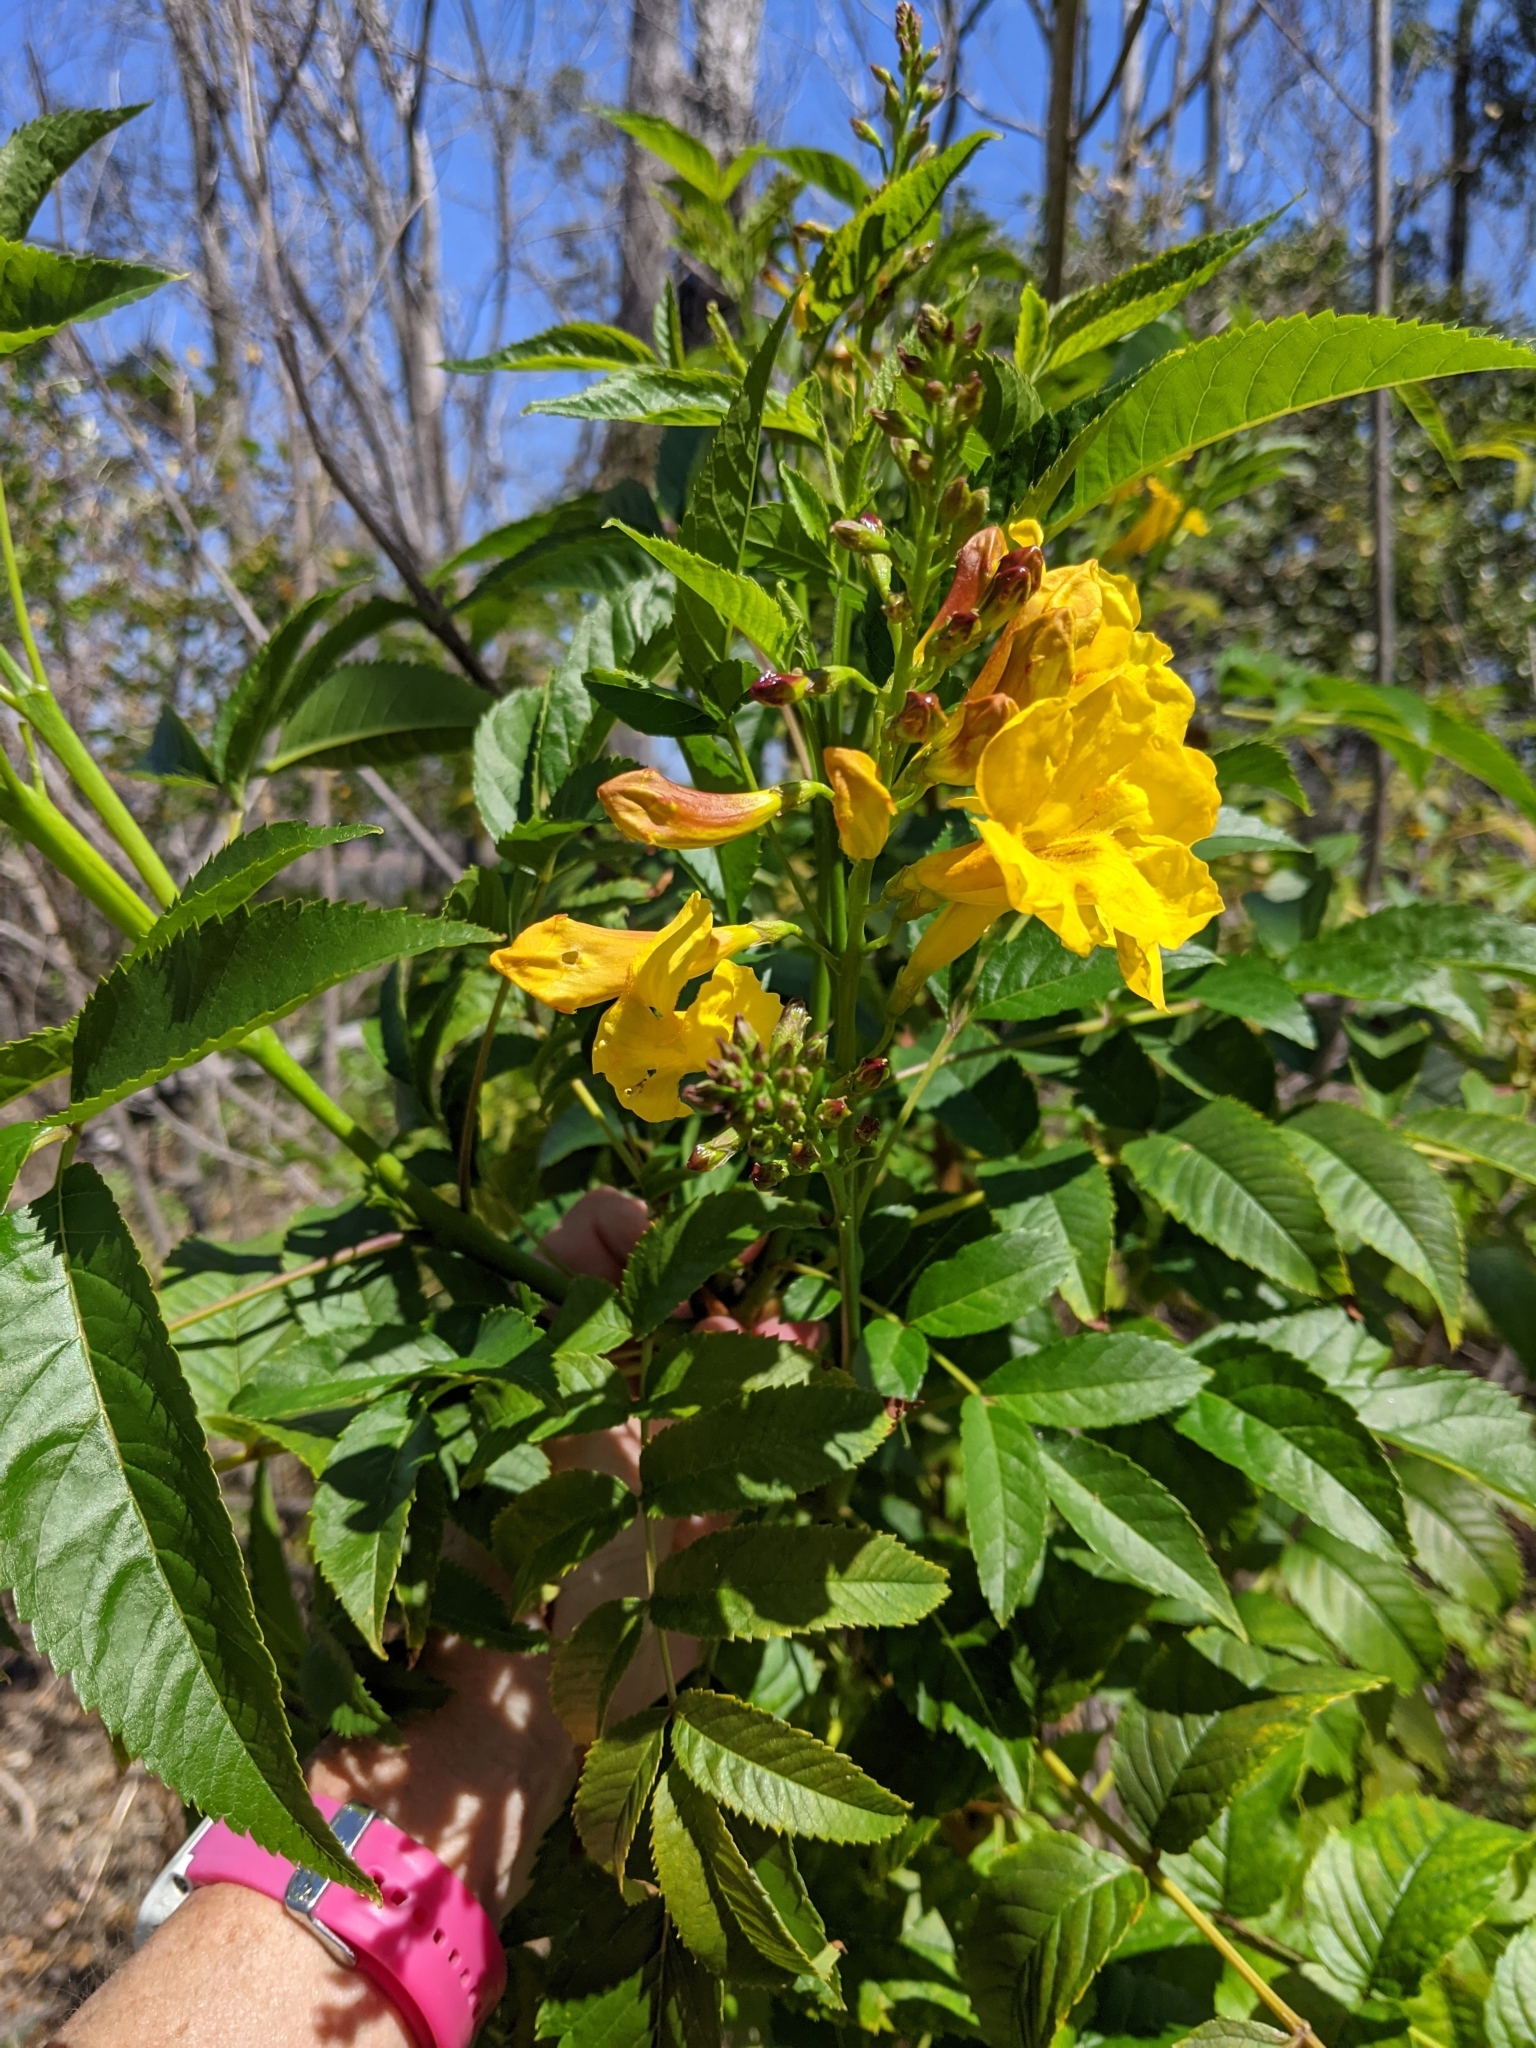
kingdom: Plantae
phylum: Tracheophyta
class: Magnoliopsida
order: Lamiales
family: Bignoniaceae
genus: Tecoma
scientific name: Tecoma stans
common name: Yellow trumpetbush
